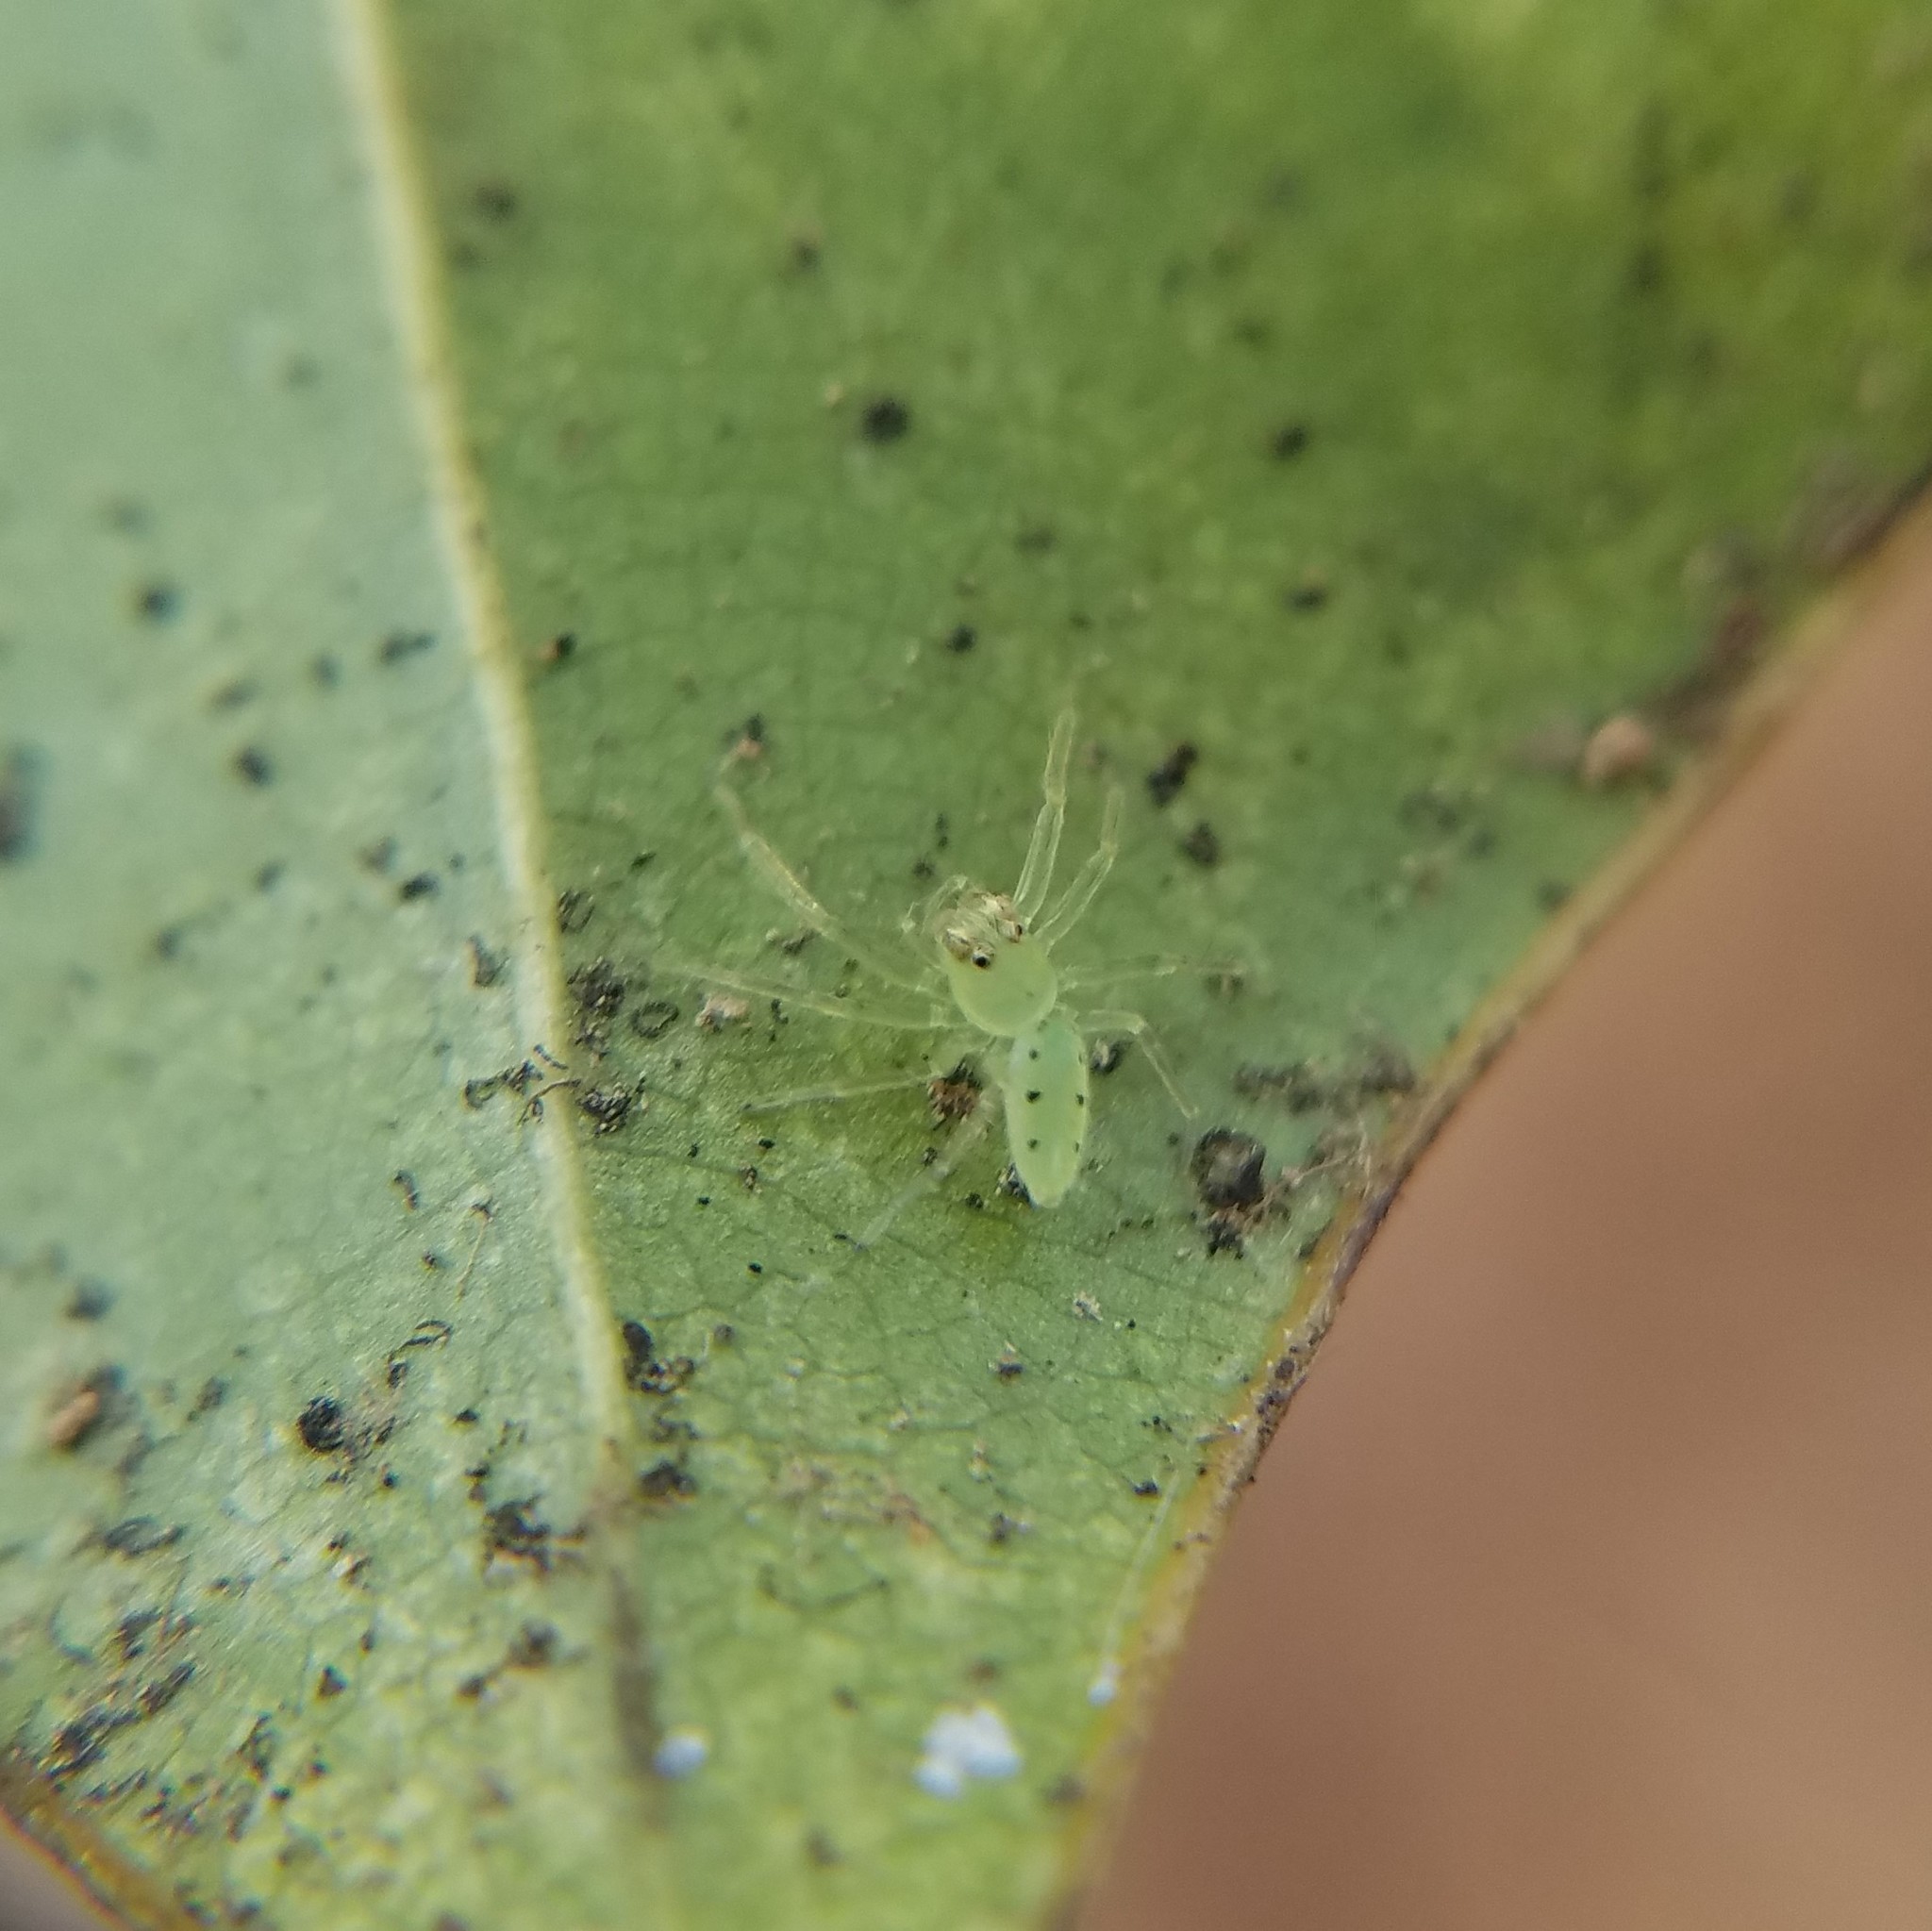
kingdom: Animalia
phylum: Arthropoda
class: Arachnida
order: Araneae
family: Salticidae
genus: Lyssomanes
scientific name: Lyssomanes viridis
